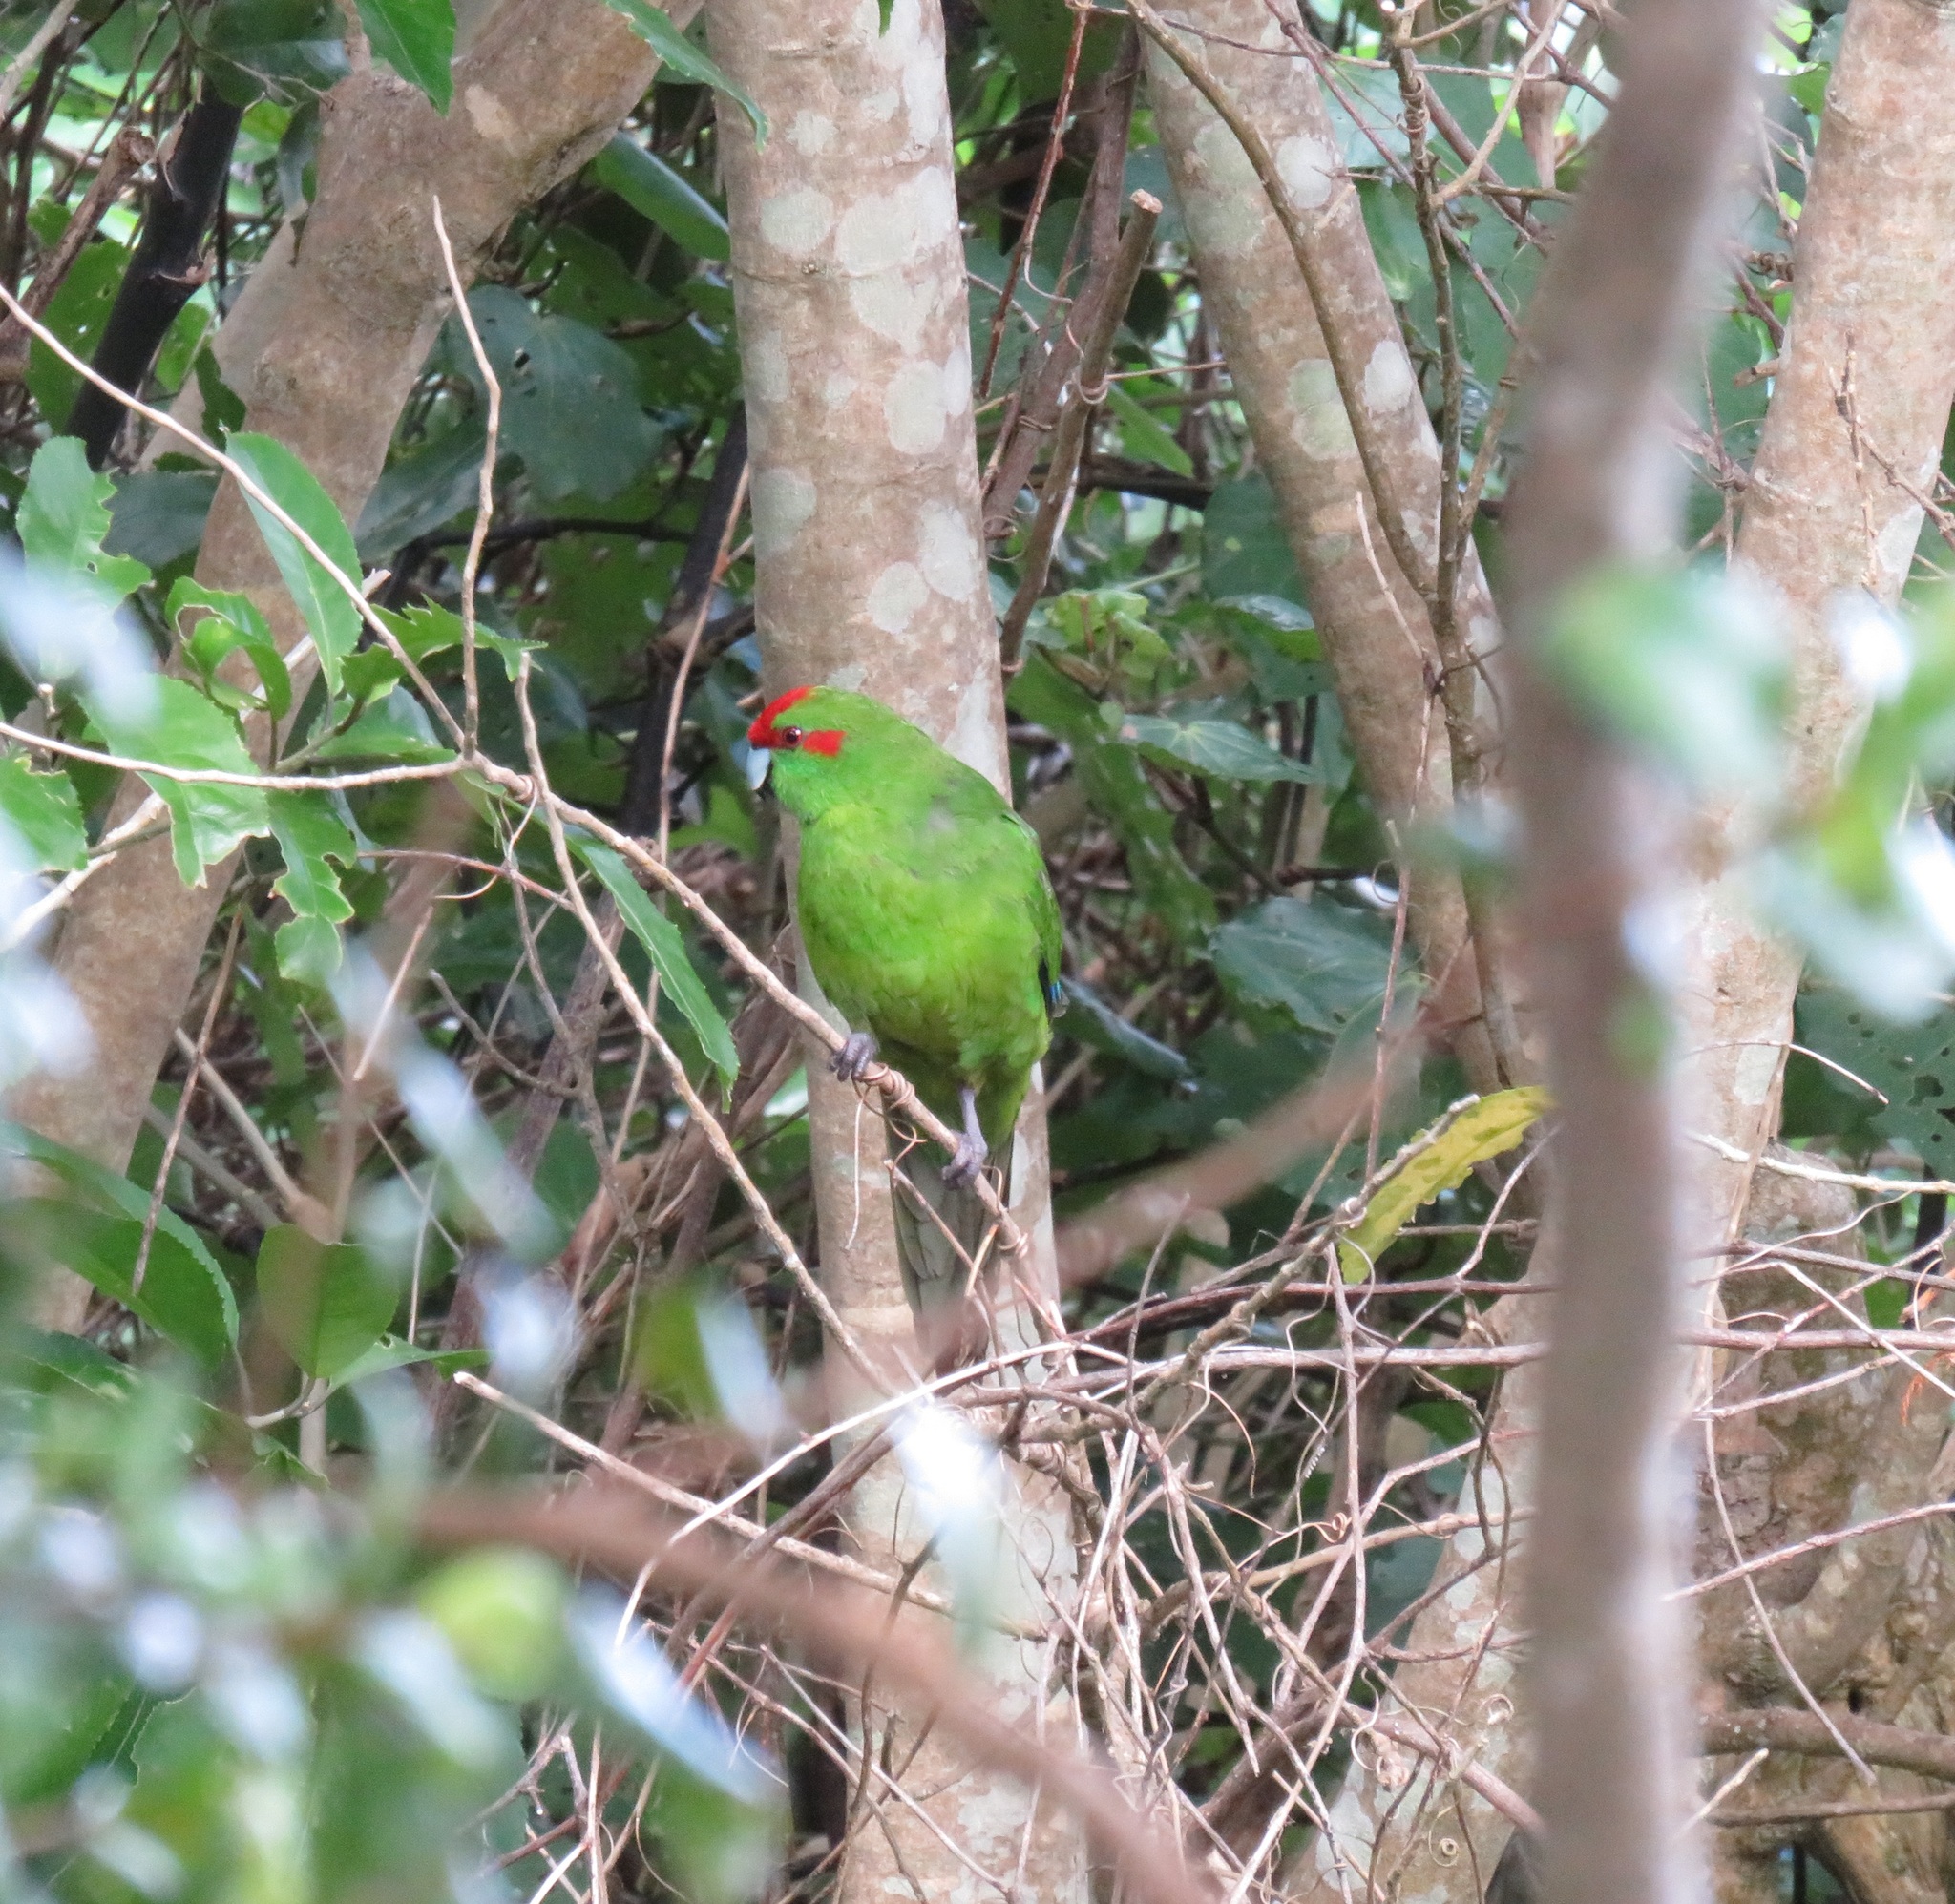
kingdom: Animalia
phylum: Chordata
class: Aves
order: Psittaciformes
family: Psittacidae
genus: Cyanoramphus
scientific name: Cyanoramphus novaezelandiae
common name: Red-fronted parakeet
